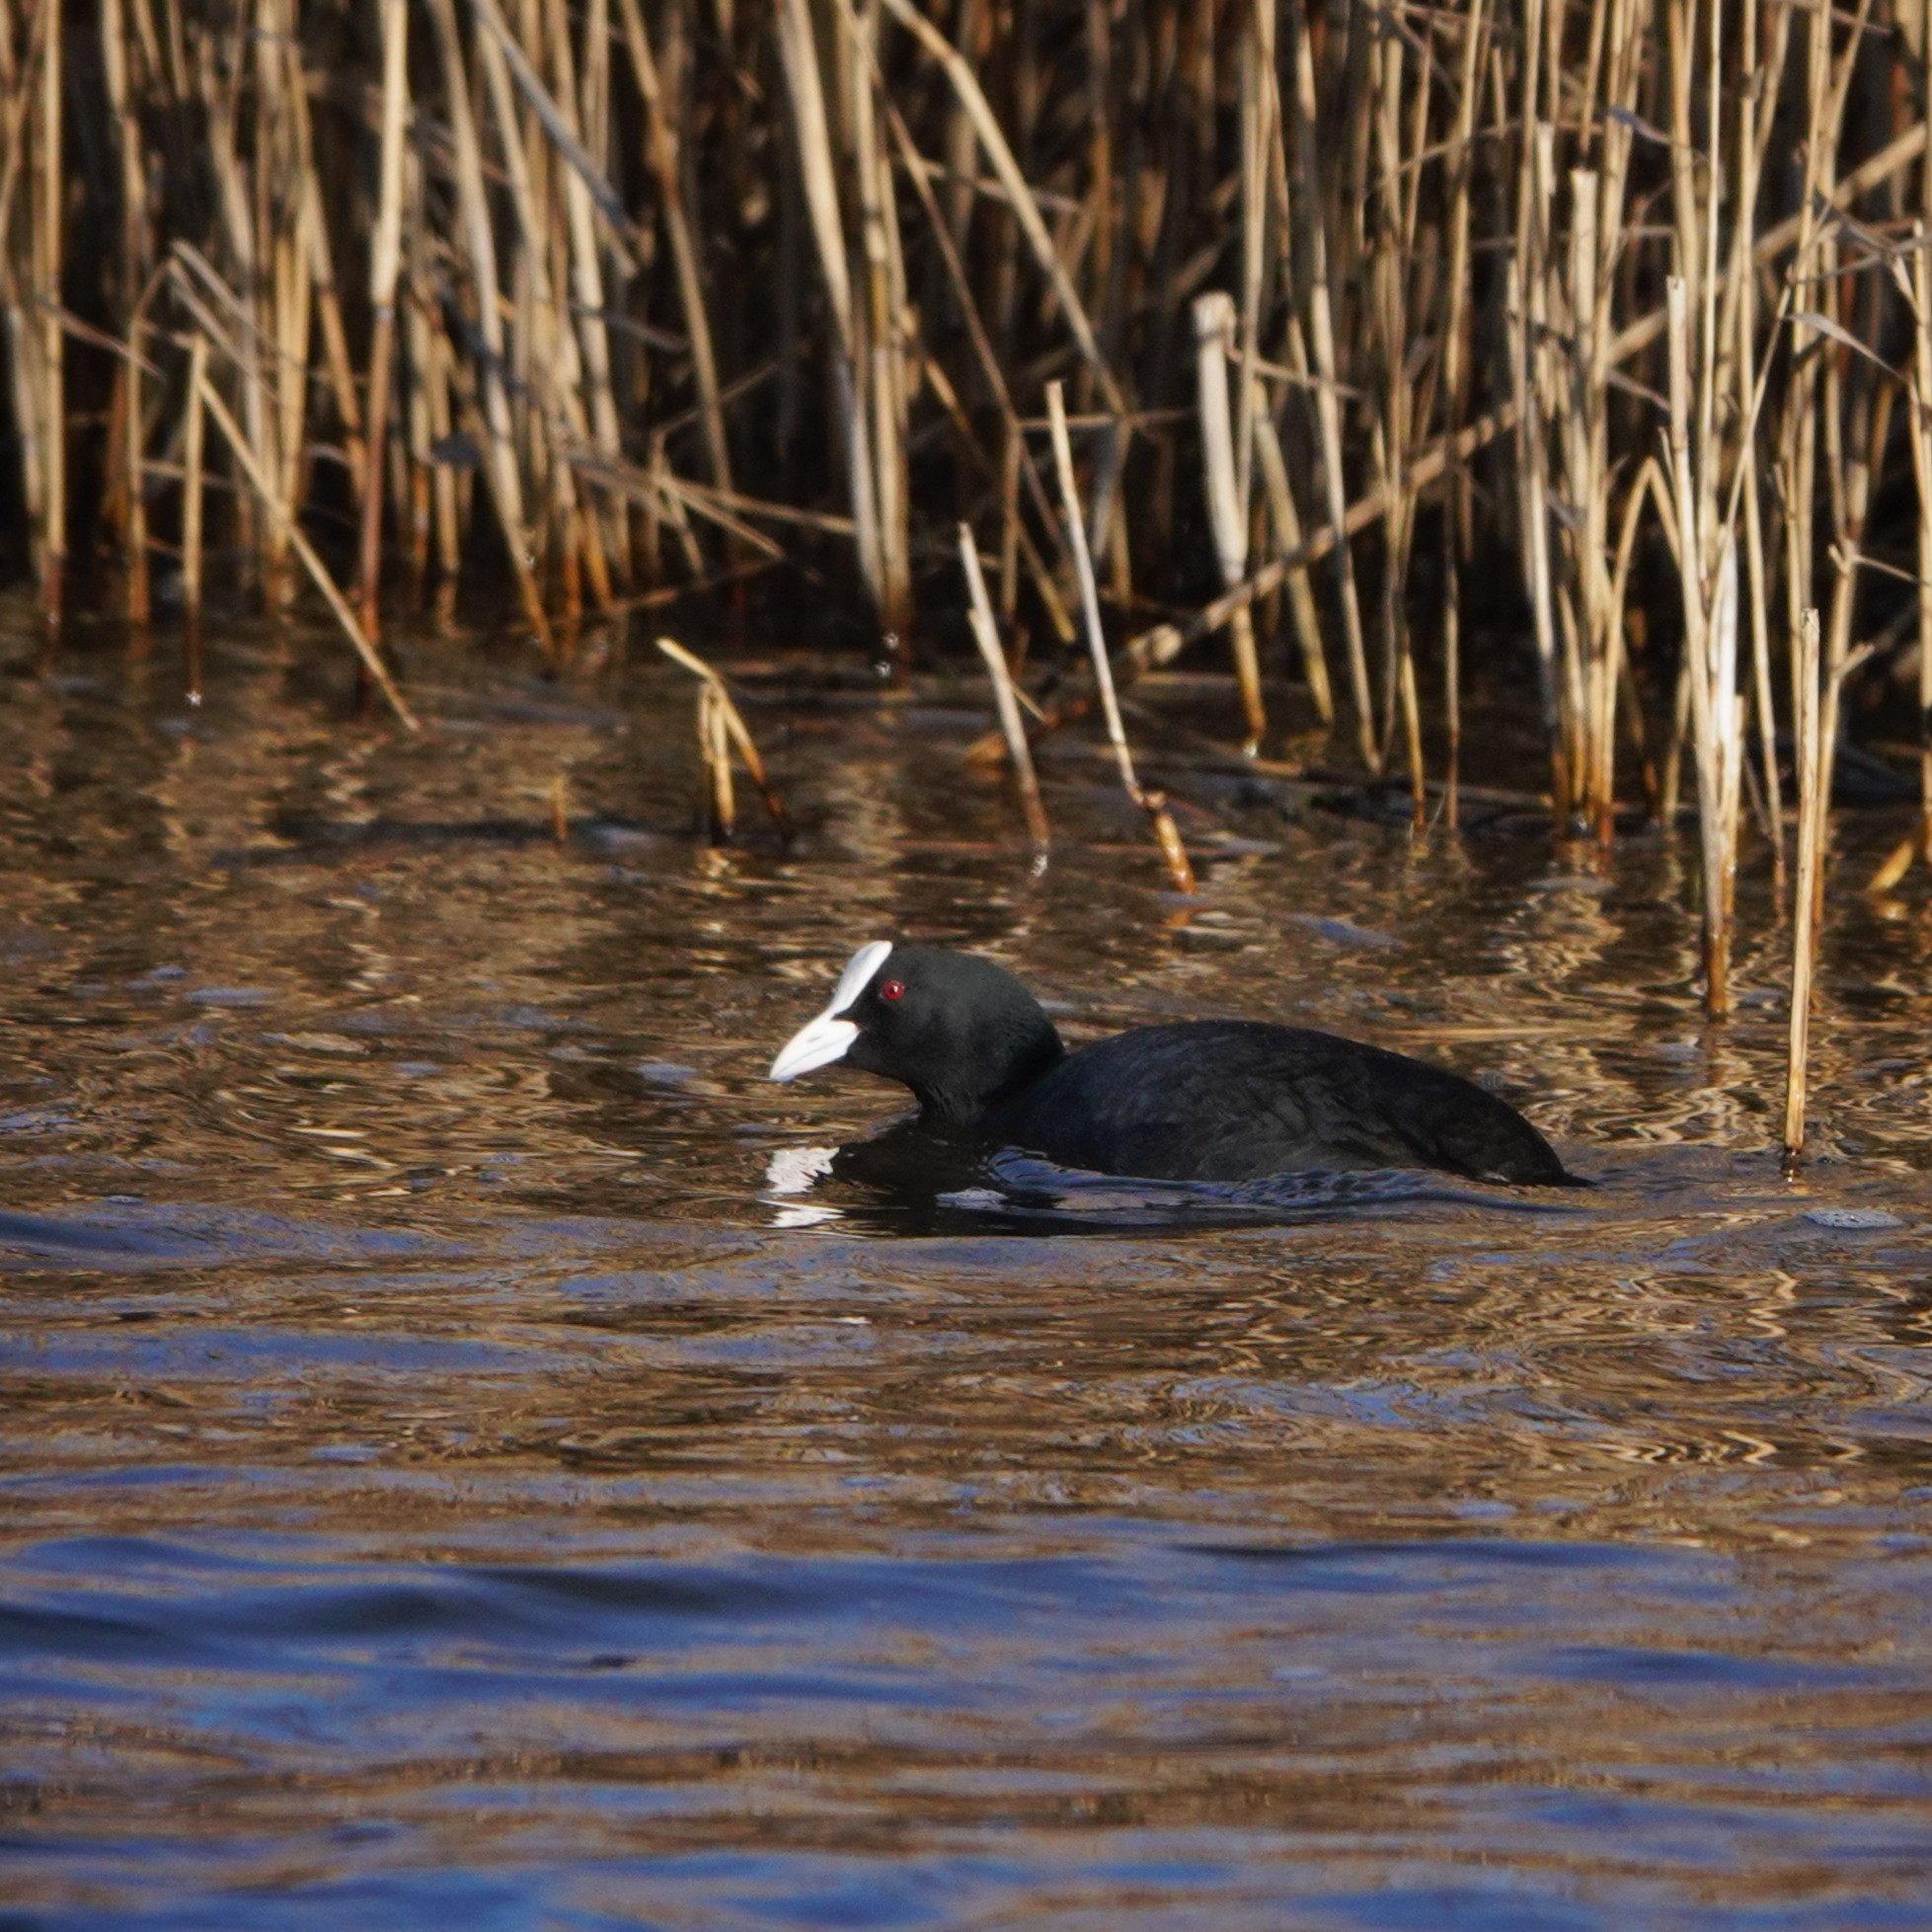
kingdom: Animalia
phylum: Chordata
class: Aves
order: Gruiformes
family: Rallidae
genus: Fulica
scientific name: Fulica atra
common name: Eurasian coot
